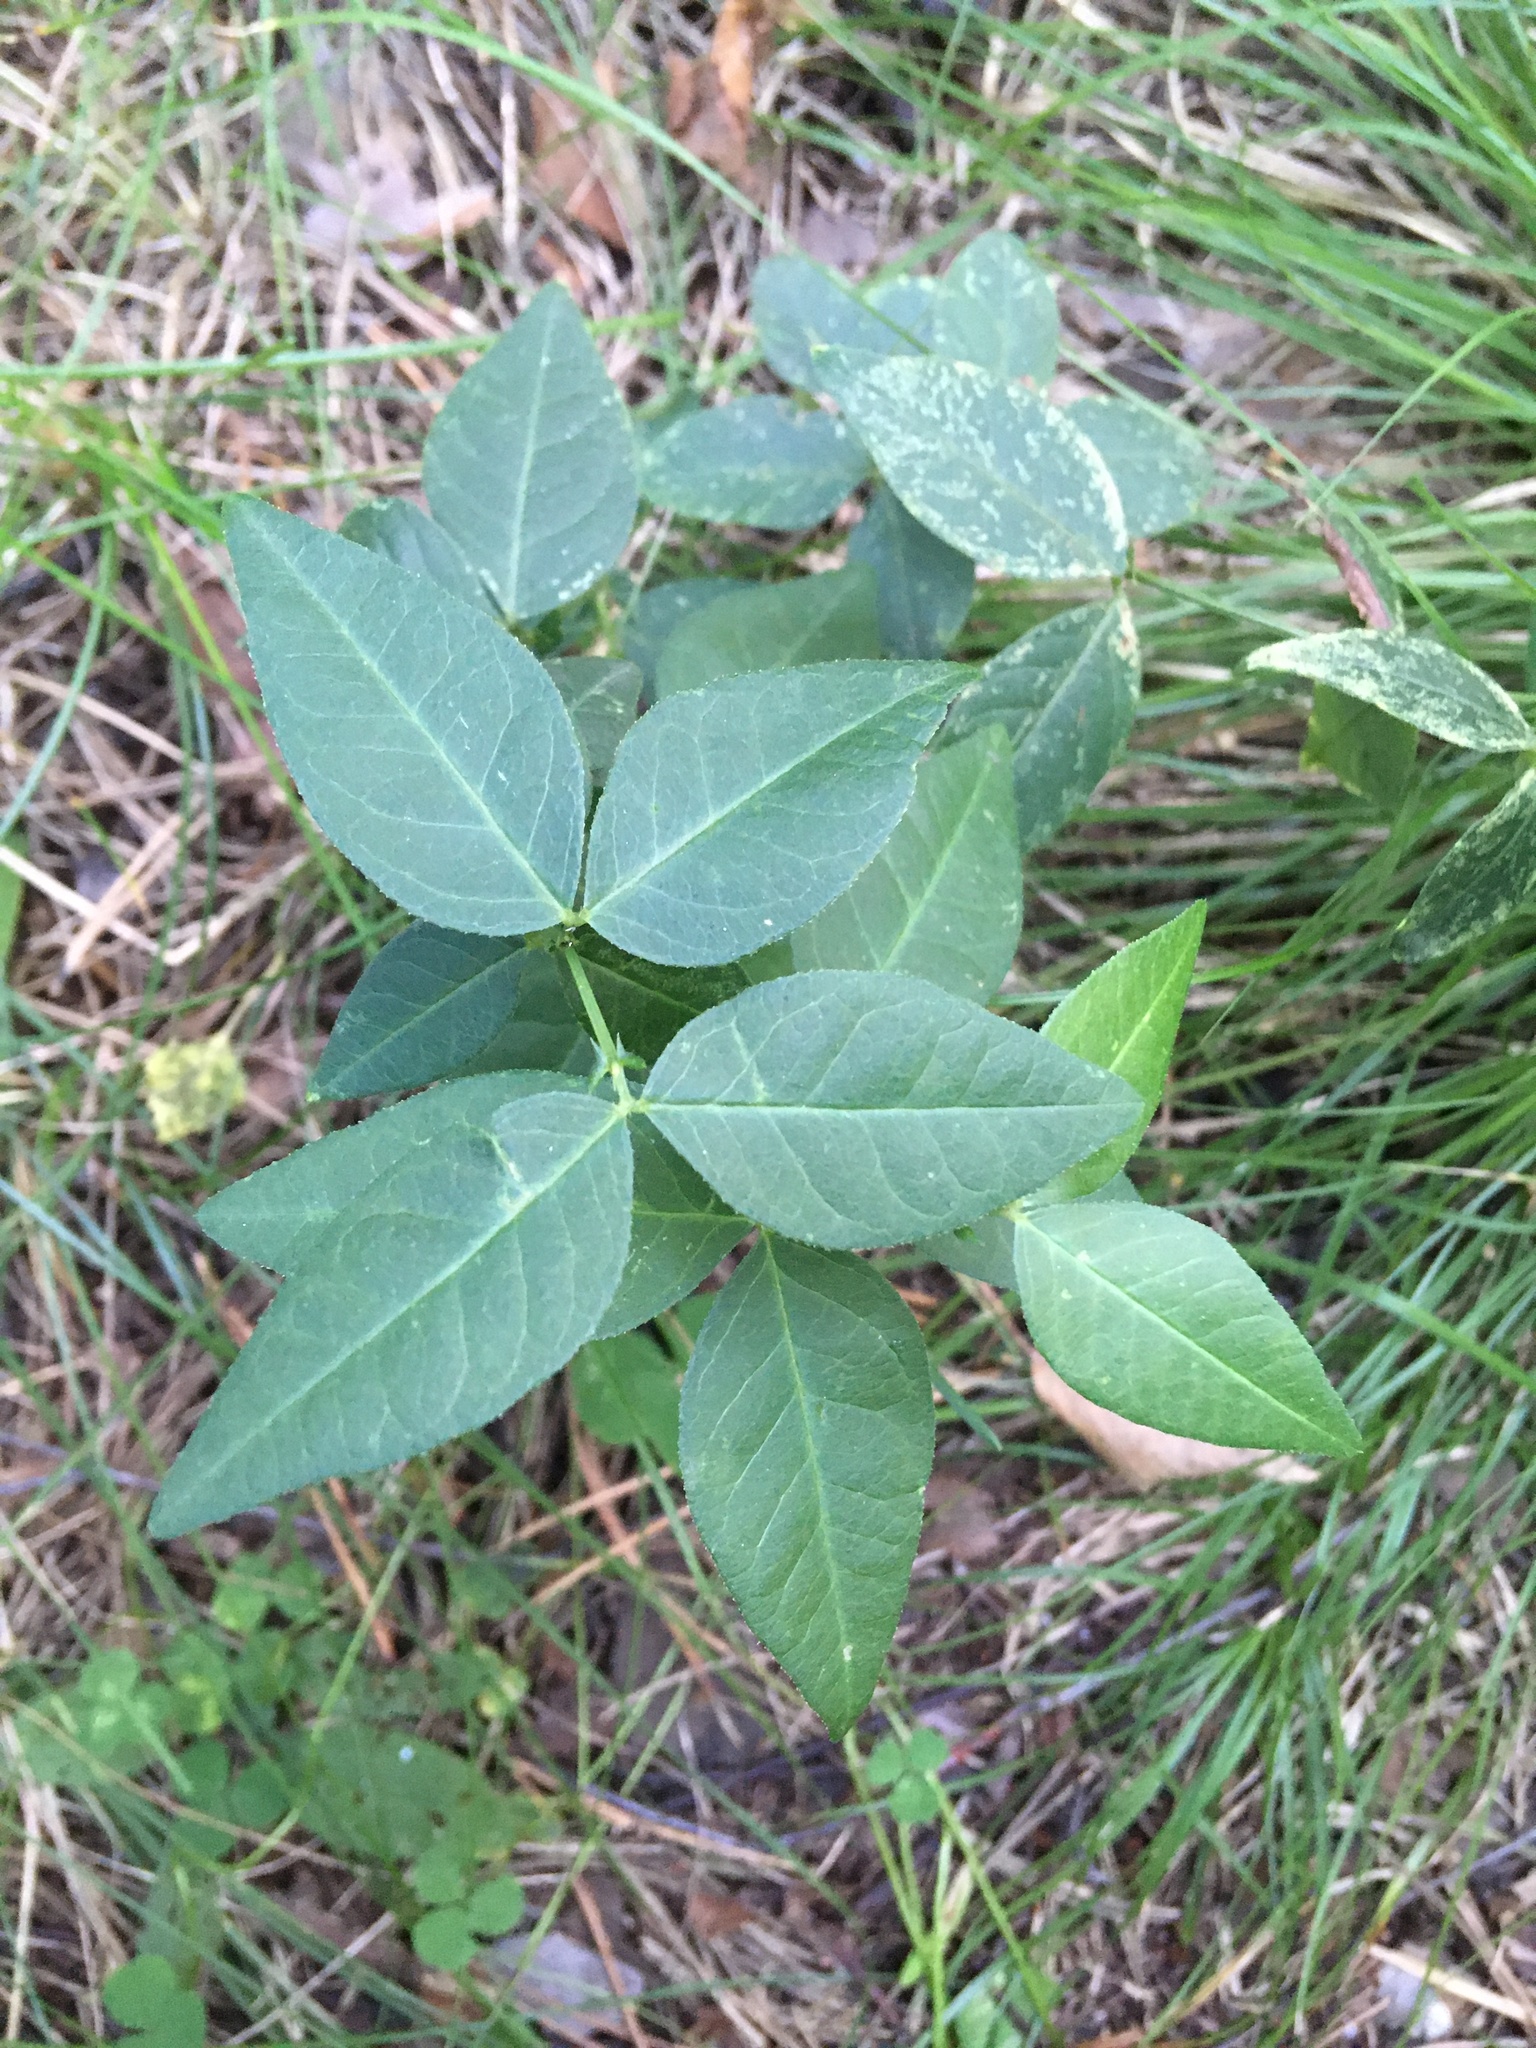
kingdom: Plantae
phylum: Tracheophyta
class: Magnoliopsida
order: Fabales
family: Fabaceae
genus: Vicia
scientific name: Vicia unijuga
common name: Two-leaf vetch
